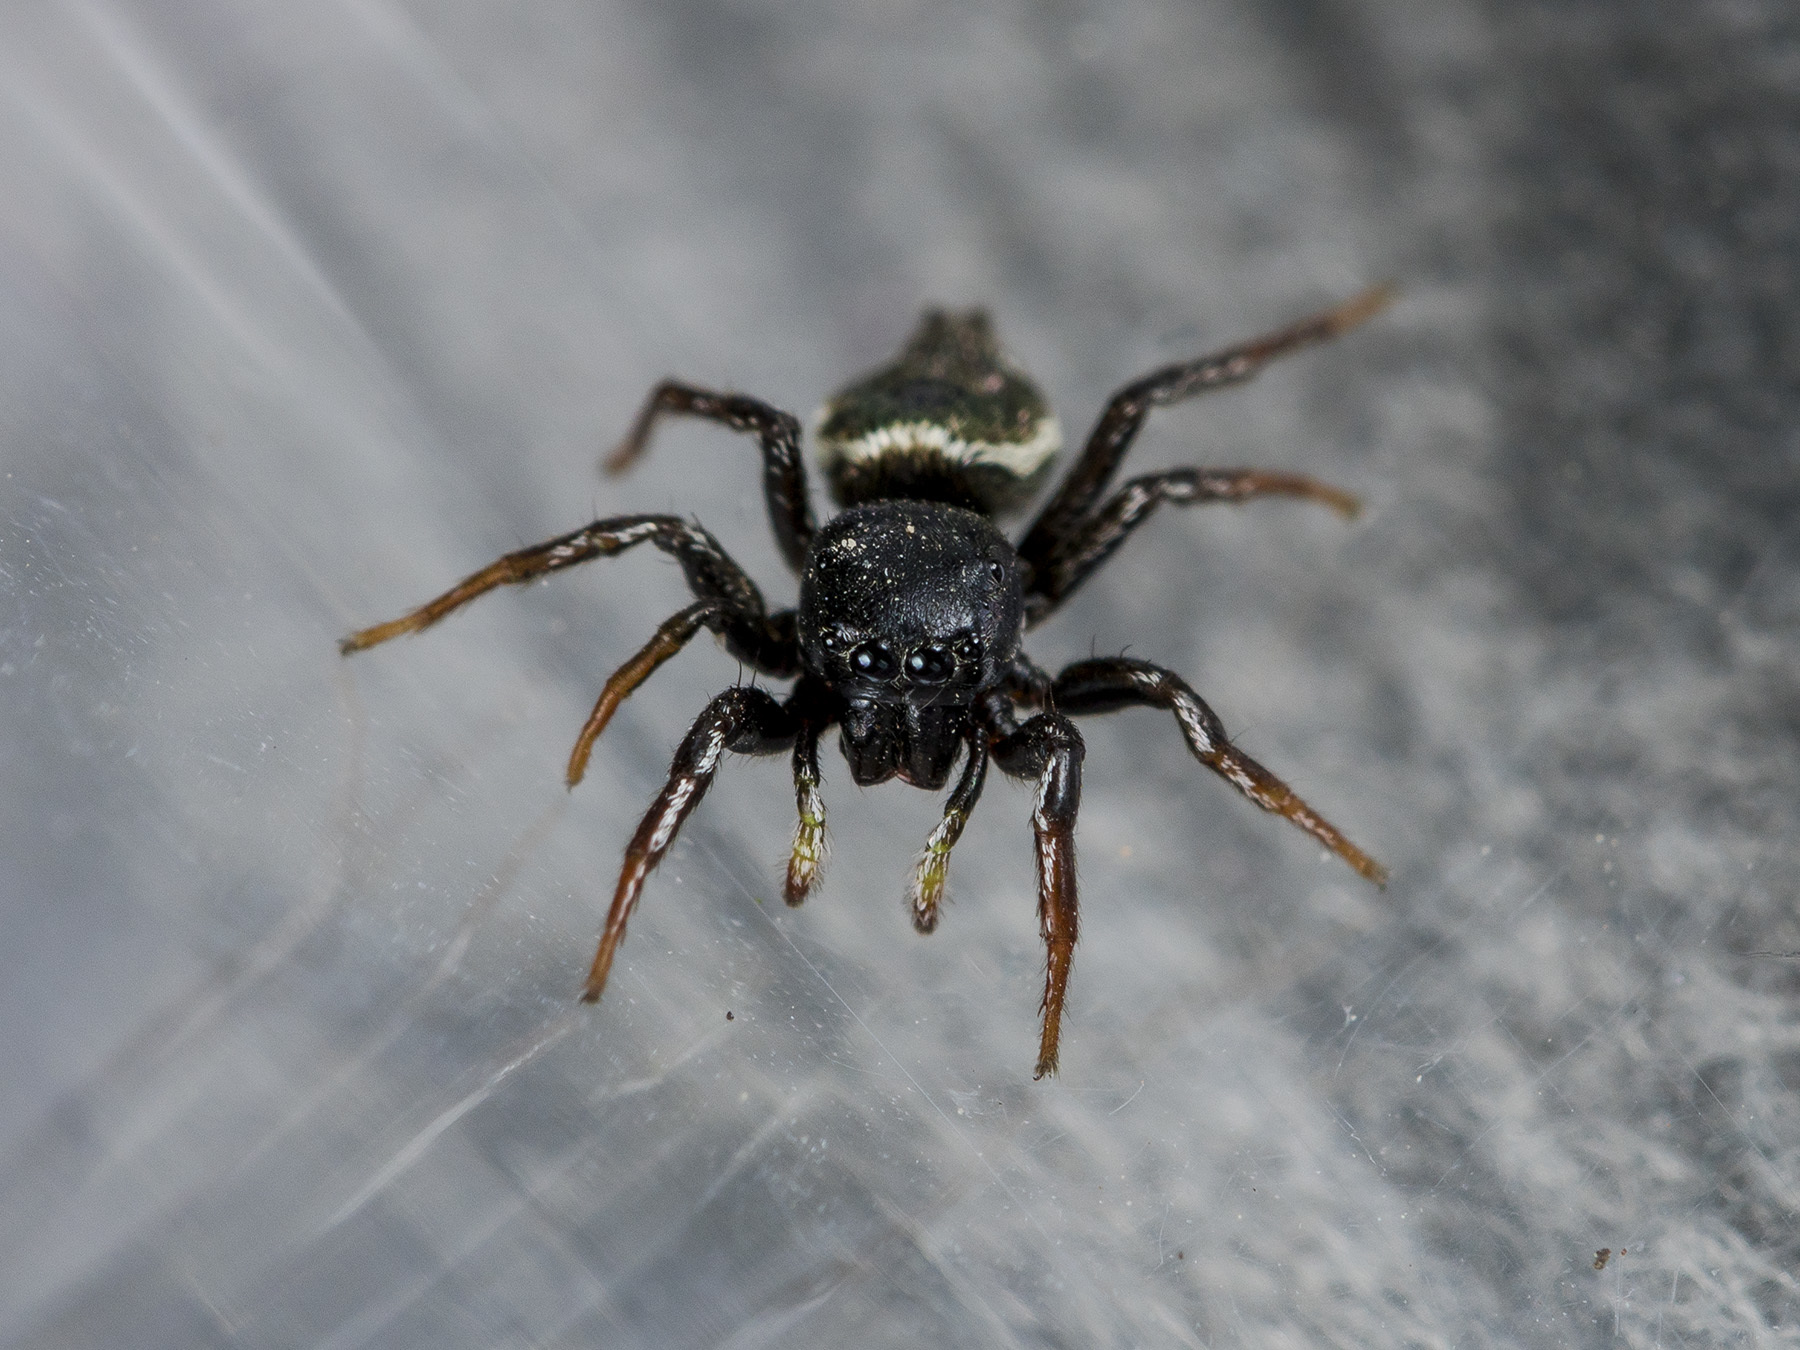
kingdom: Animalia
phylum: Arthropoda
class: Arachnida
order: Araneae
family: Salticidae
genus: Heliophanus
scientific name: Heliophanus chovdensis
